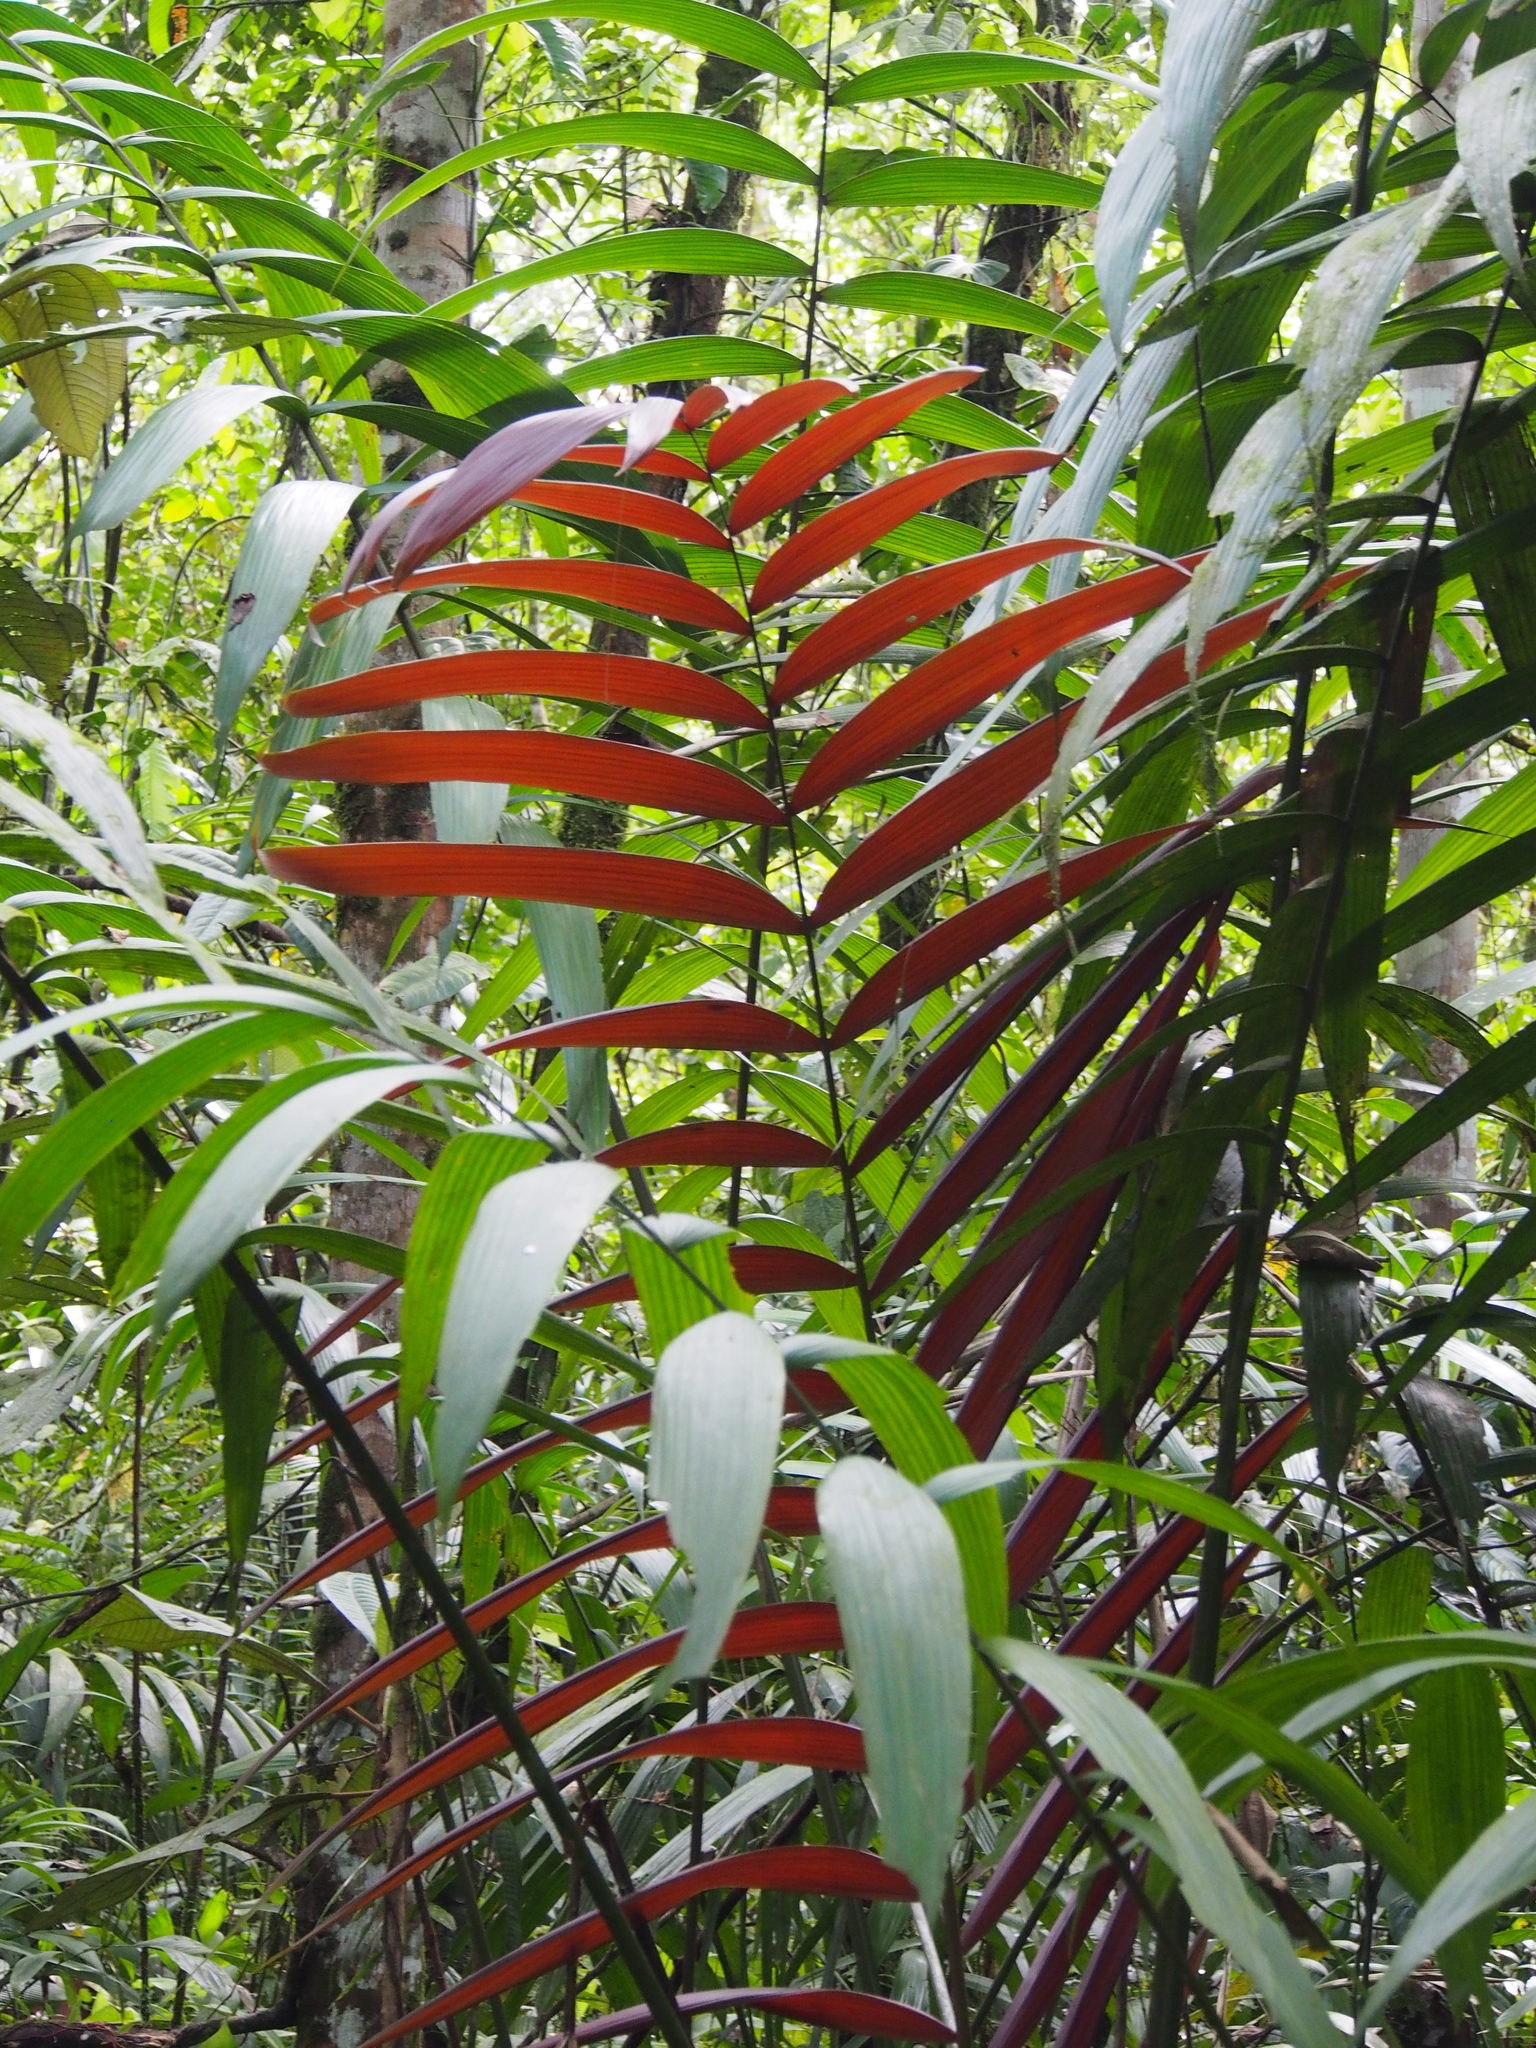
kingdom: Plantae
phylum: Tracheophyta
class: Liliopsida
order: Arecales
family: Arecaceae
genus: Welfia
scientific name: Welfia regia
